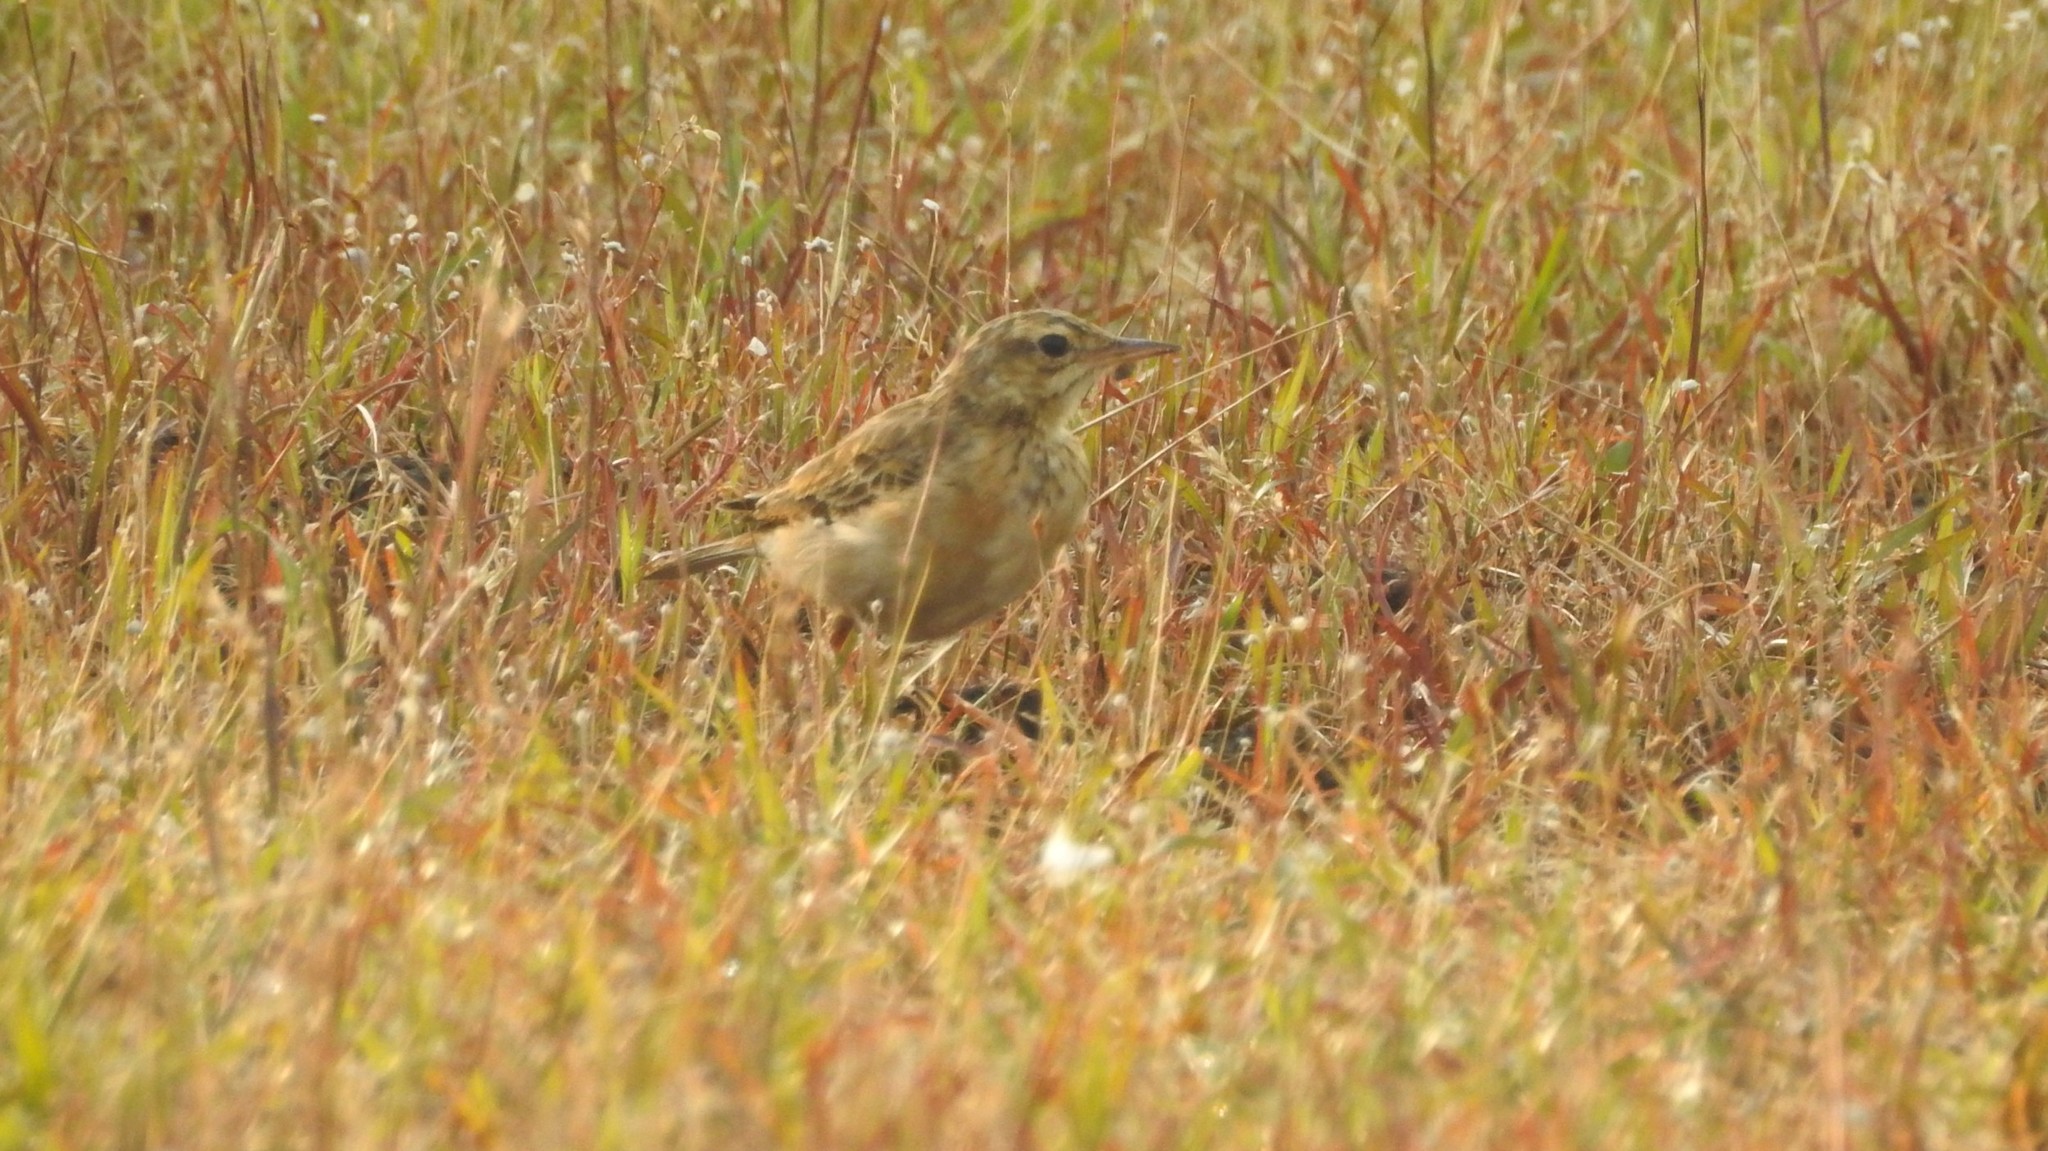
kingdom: Animalia
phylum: Chordata
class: Aves
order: Passeriformes
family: Motacillidae
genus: Anthus
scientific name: Anthus rufulus
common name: Paddyfield pipit
